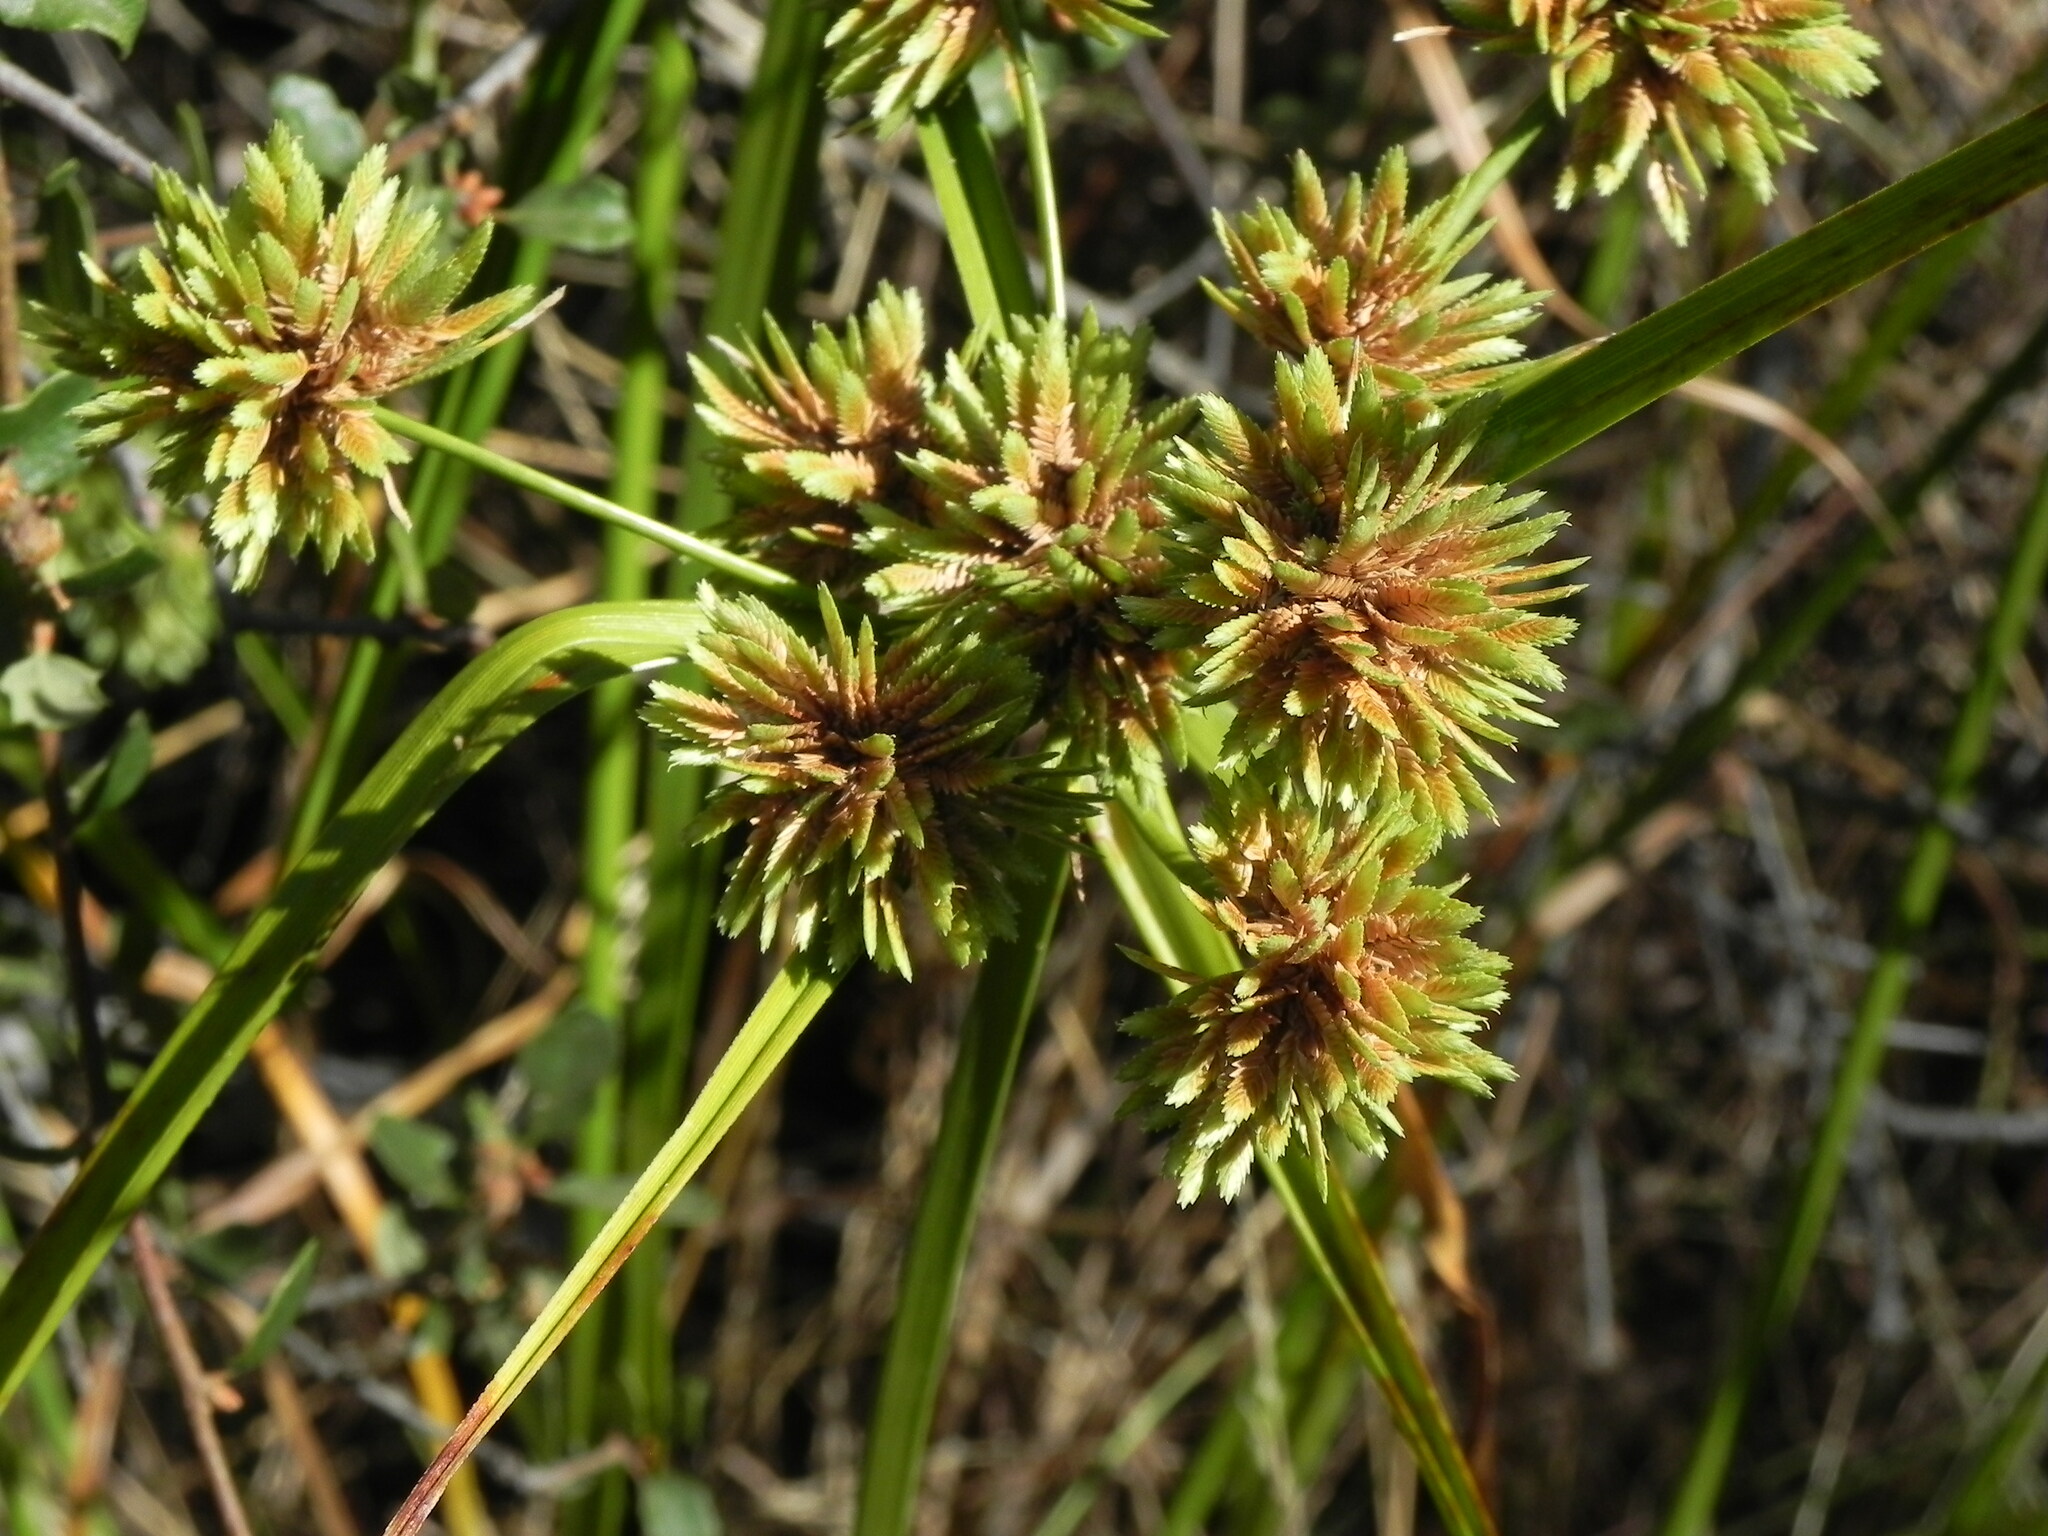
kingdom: Plantae
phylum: Tracheophyta
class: Liliopsida
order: Poales
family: Cyperaceae
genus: Cyperus
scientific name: Cyperus eragrostis
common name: Tall flatsedge
